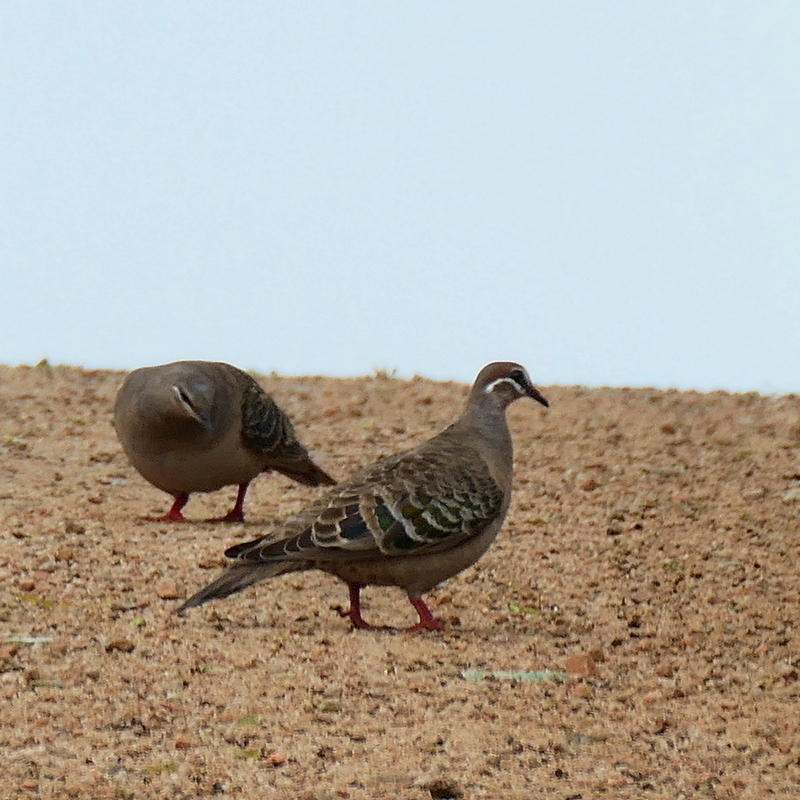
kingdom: Animalia
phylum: Chordata
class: Aves
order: Columbiformes
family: Columbidae
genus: Phaps
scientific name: Phaps chalcoptera
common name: Common bronzewing
